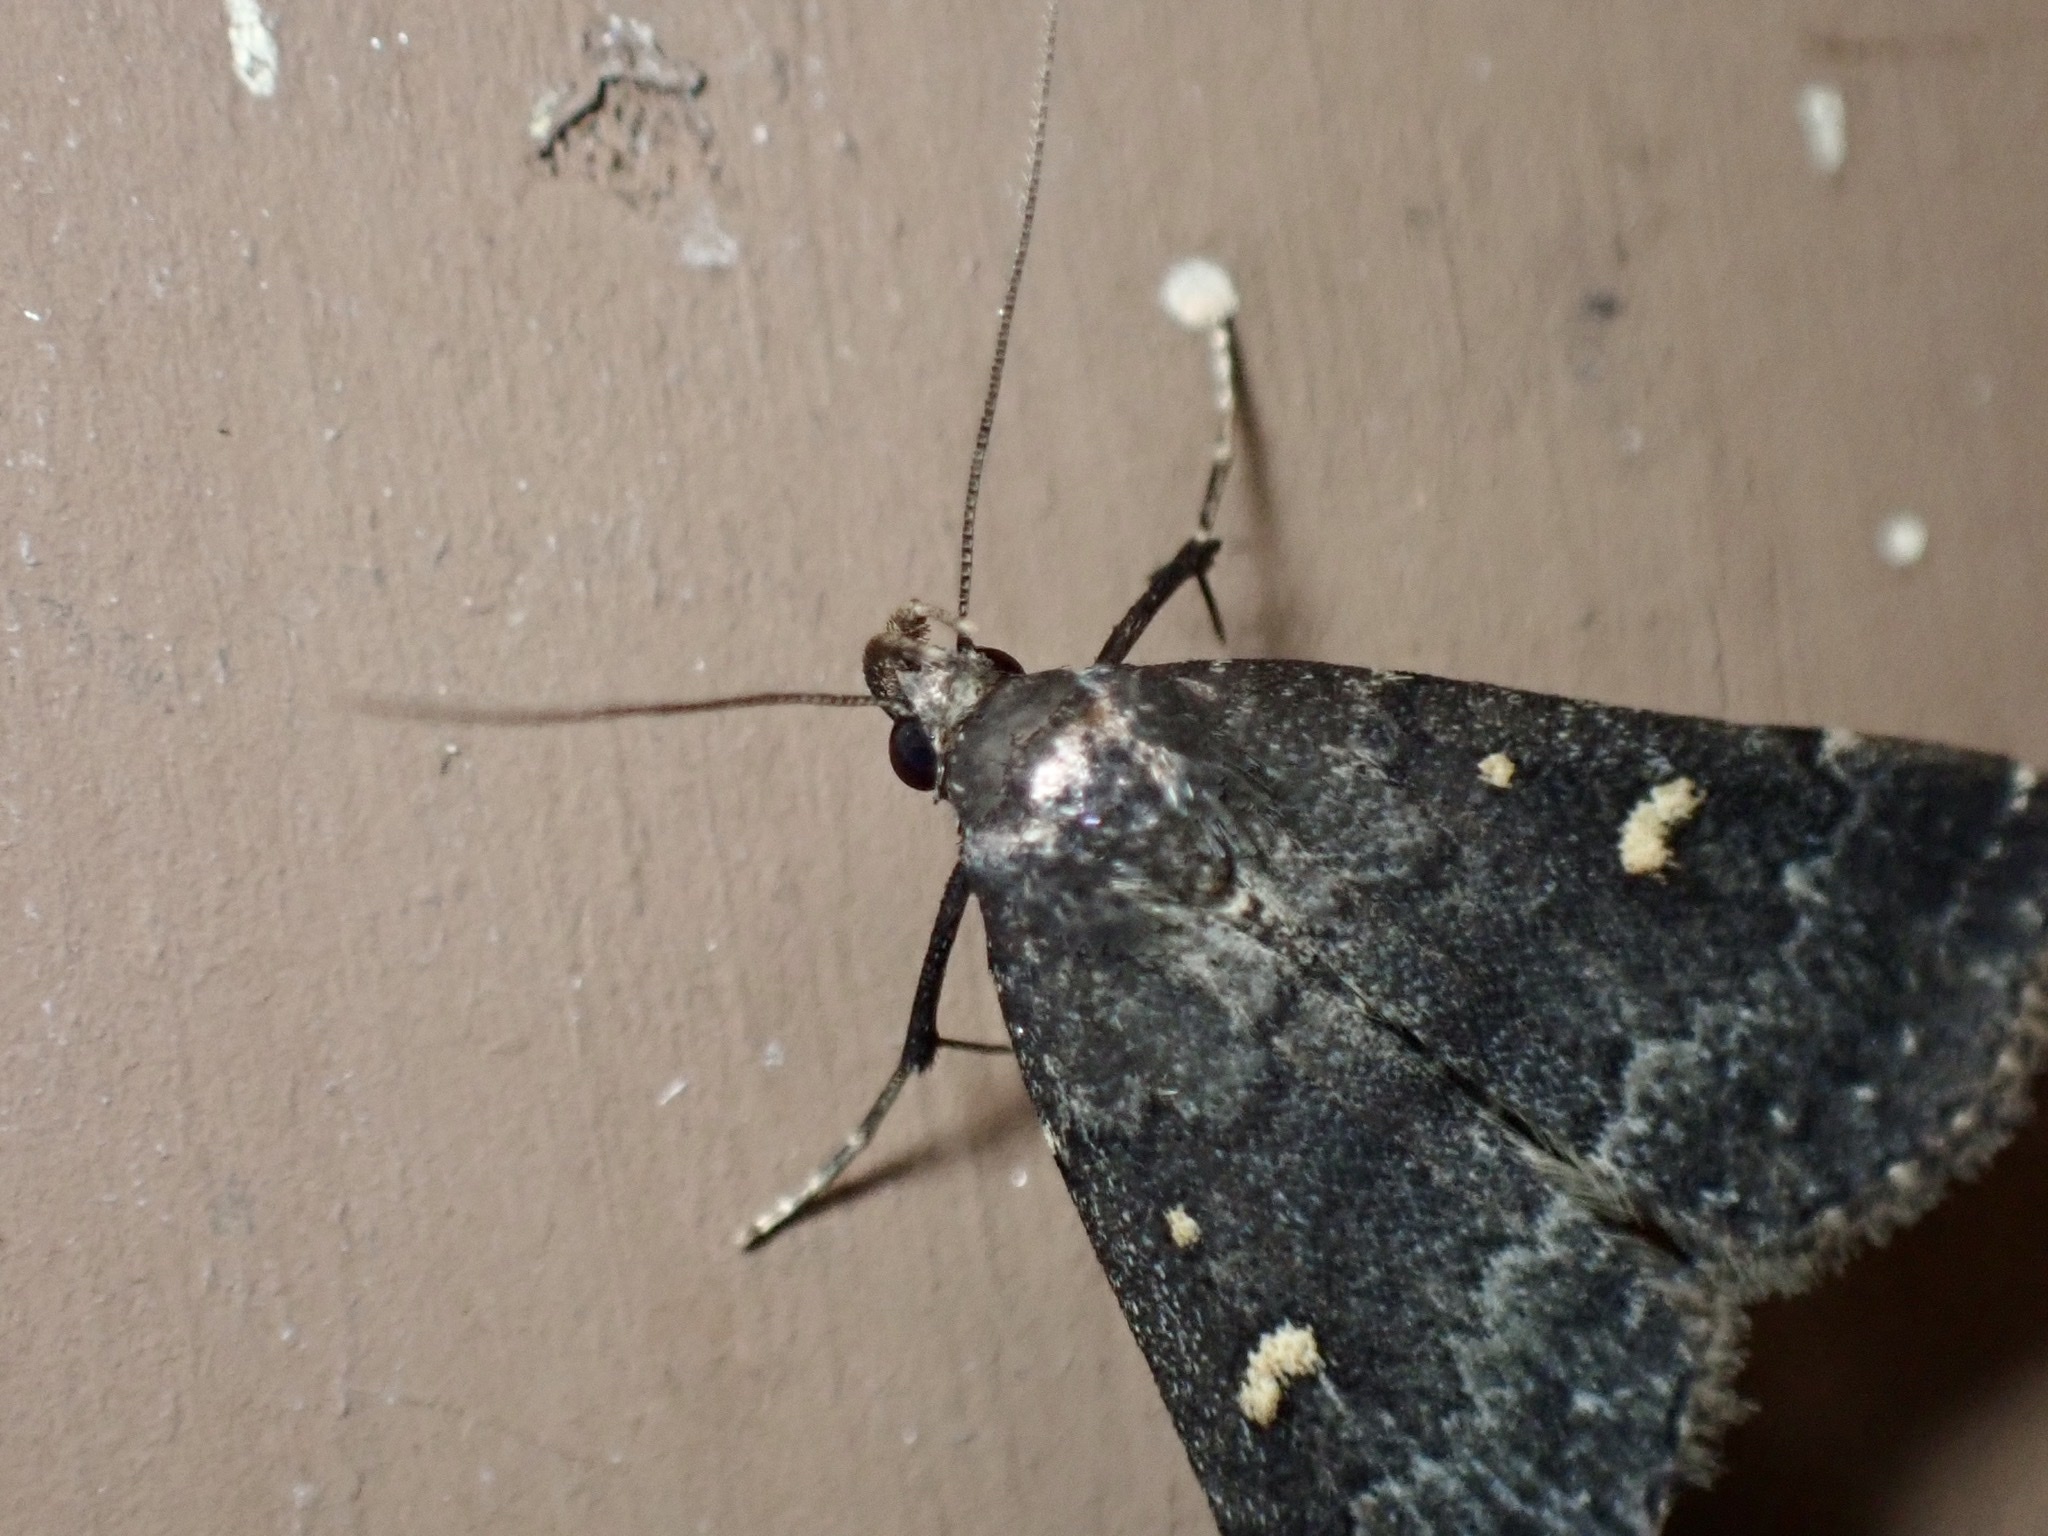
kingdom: Animalia
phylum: Arthropoda
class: Insecta
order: Lepidoptera
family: Erebidae
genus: Tetanolita
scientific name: Tetanolita mynesalis
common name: Smoky tetanolita moth
